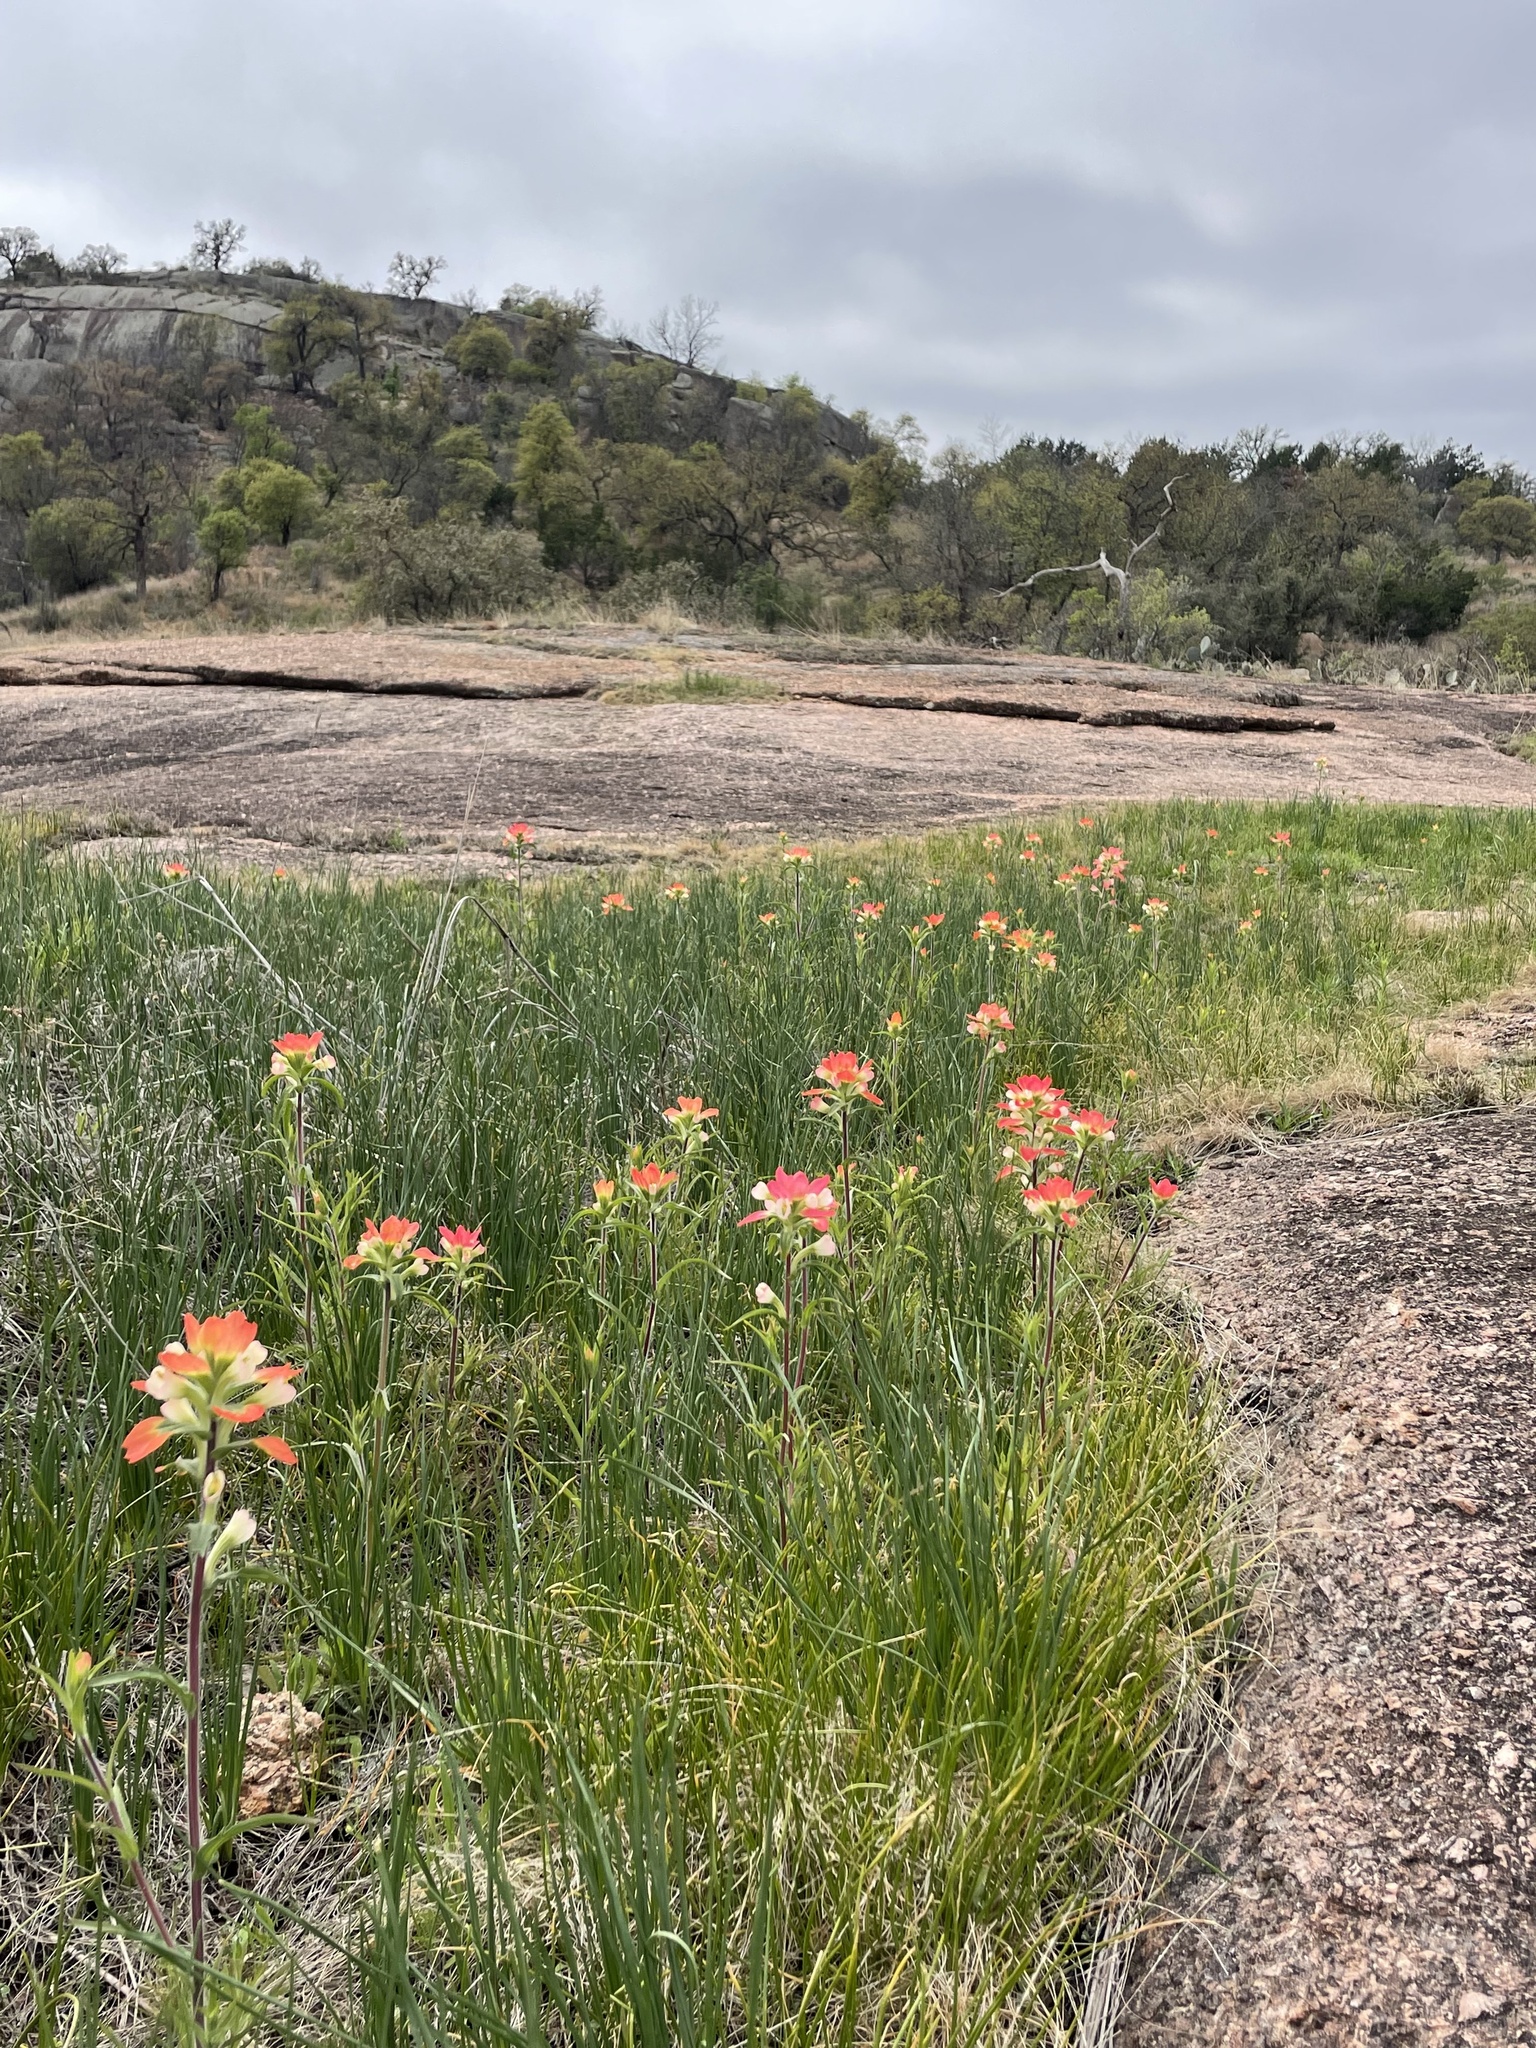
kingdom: Plantae
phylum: Tracheophyta
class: Magnoliopsida
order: Lamiales
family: Orobanchaceae
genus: Castilleja
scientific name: Castilleja indivisa
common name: Texas paintbrush
